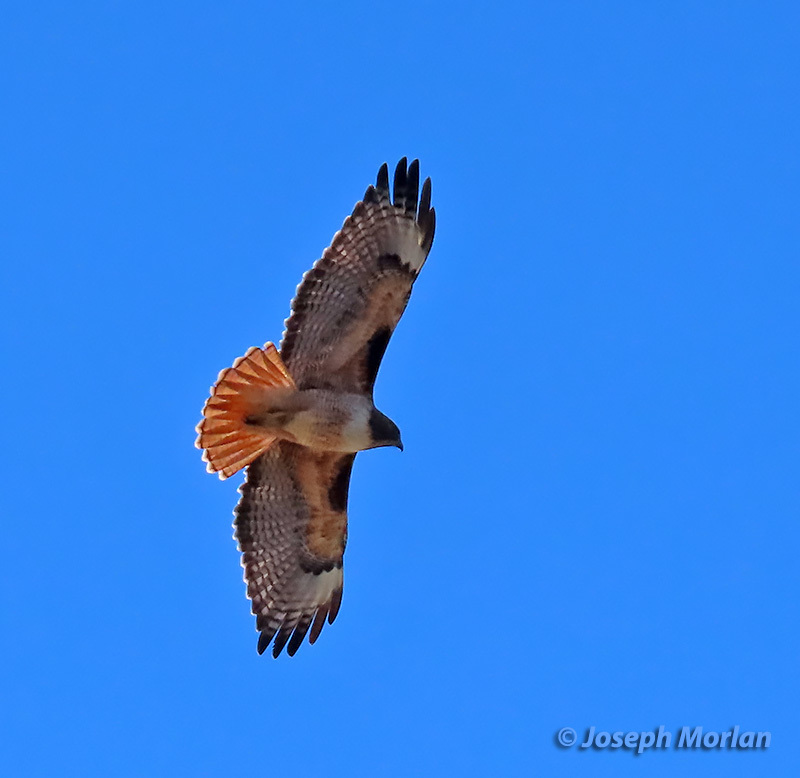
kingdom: Animalia
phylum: Chordata
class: Aves
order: Accipitriformes
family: Accipitridae
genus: Buteo
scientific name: Buteo jamaicensis
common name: Red-tailed hawk
